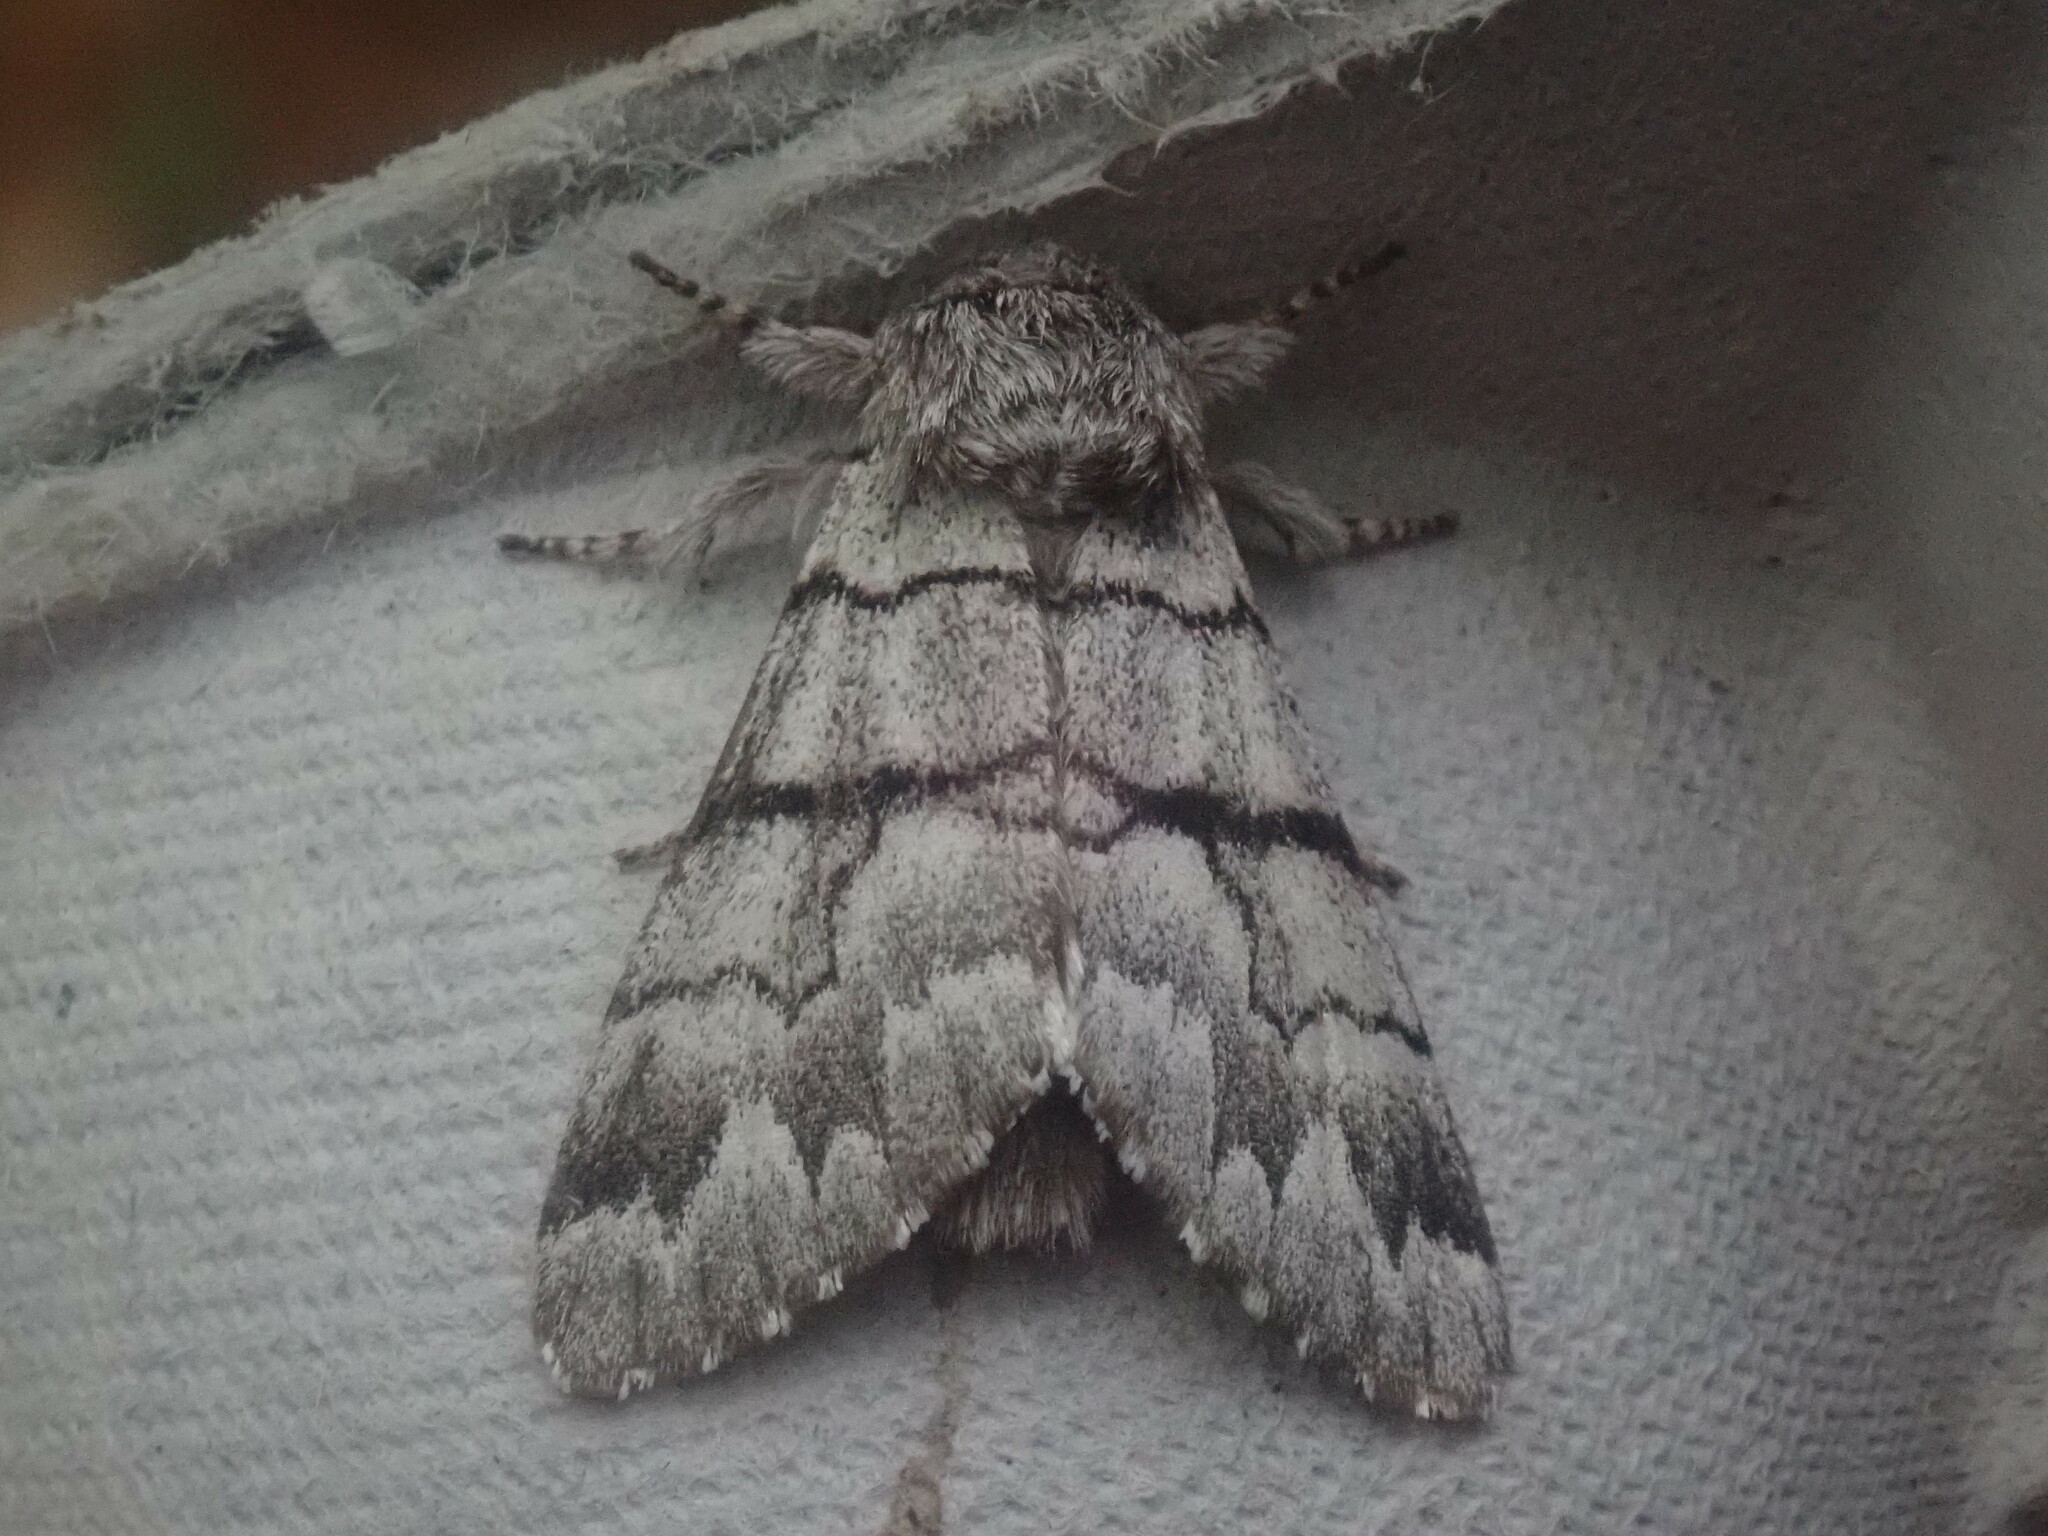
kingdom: Animalia
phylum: Arthropoda
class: Insecta
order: Lepidoptera
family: Noctuidae
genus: Panthea
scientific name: Panthea furcilla
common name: Eastern panthea moth
